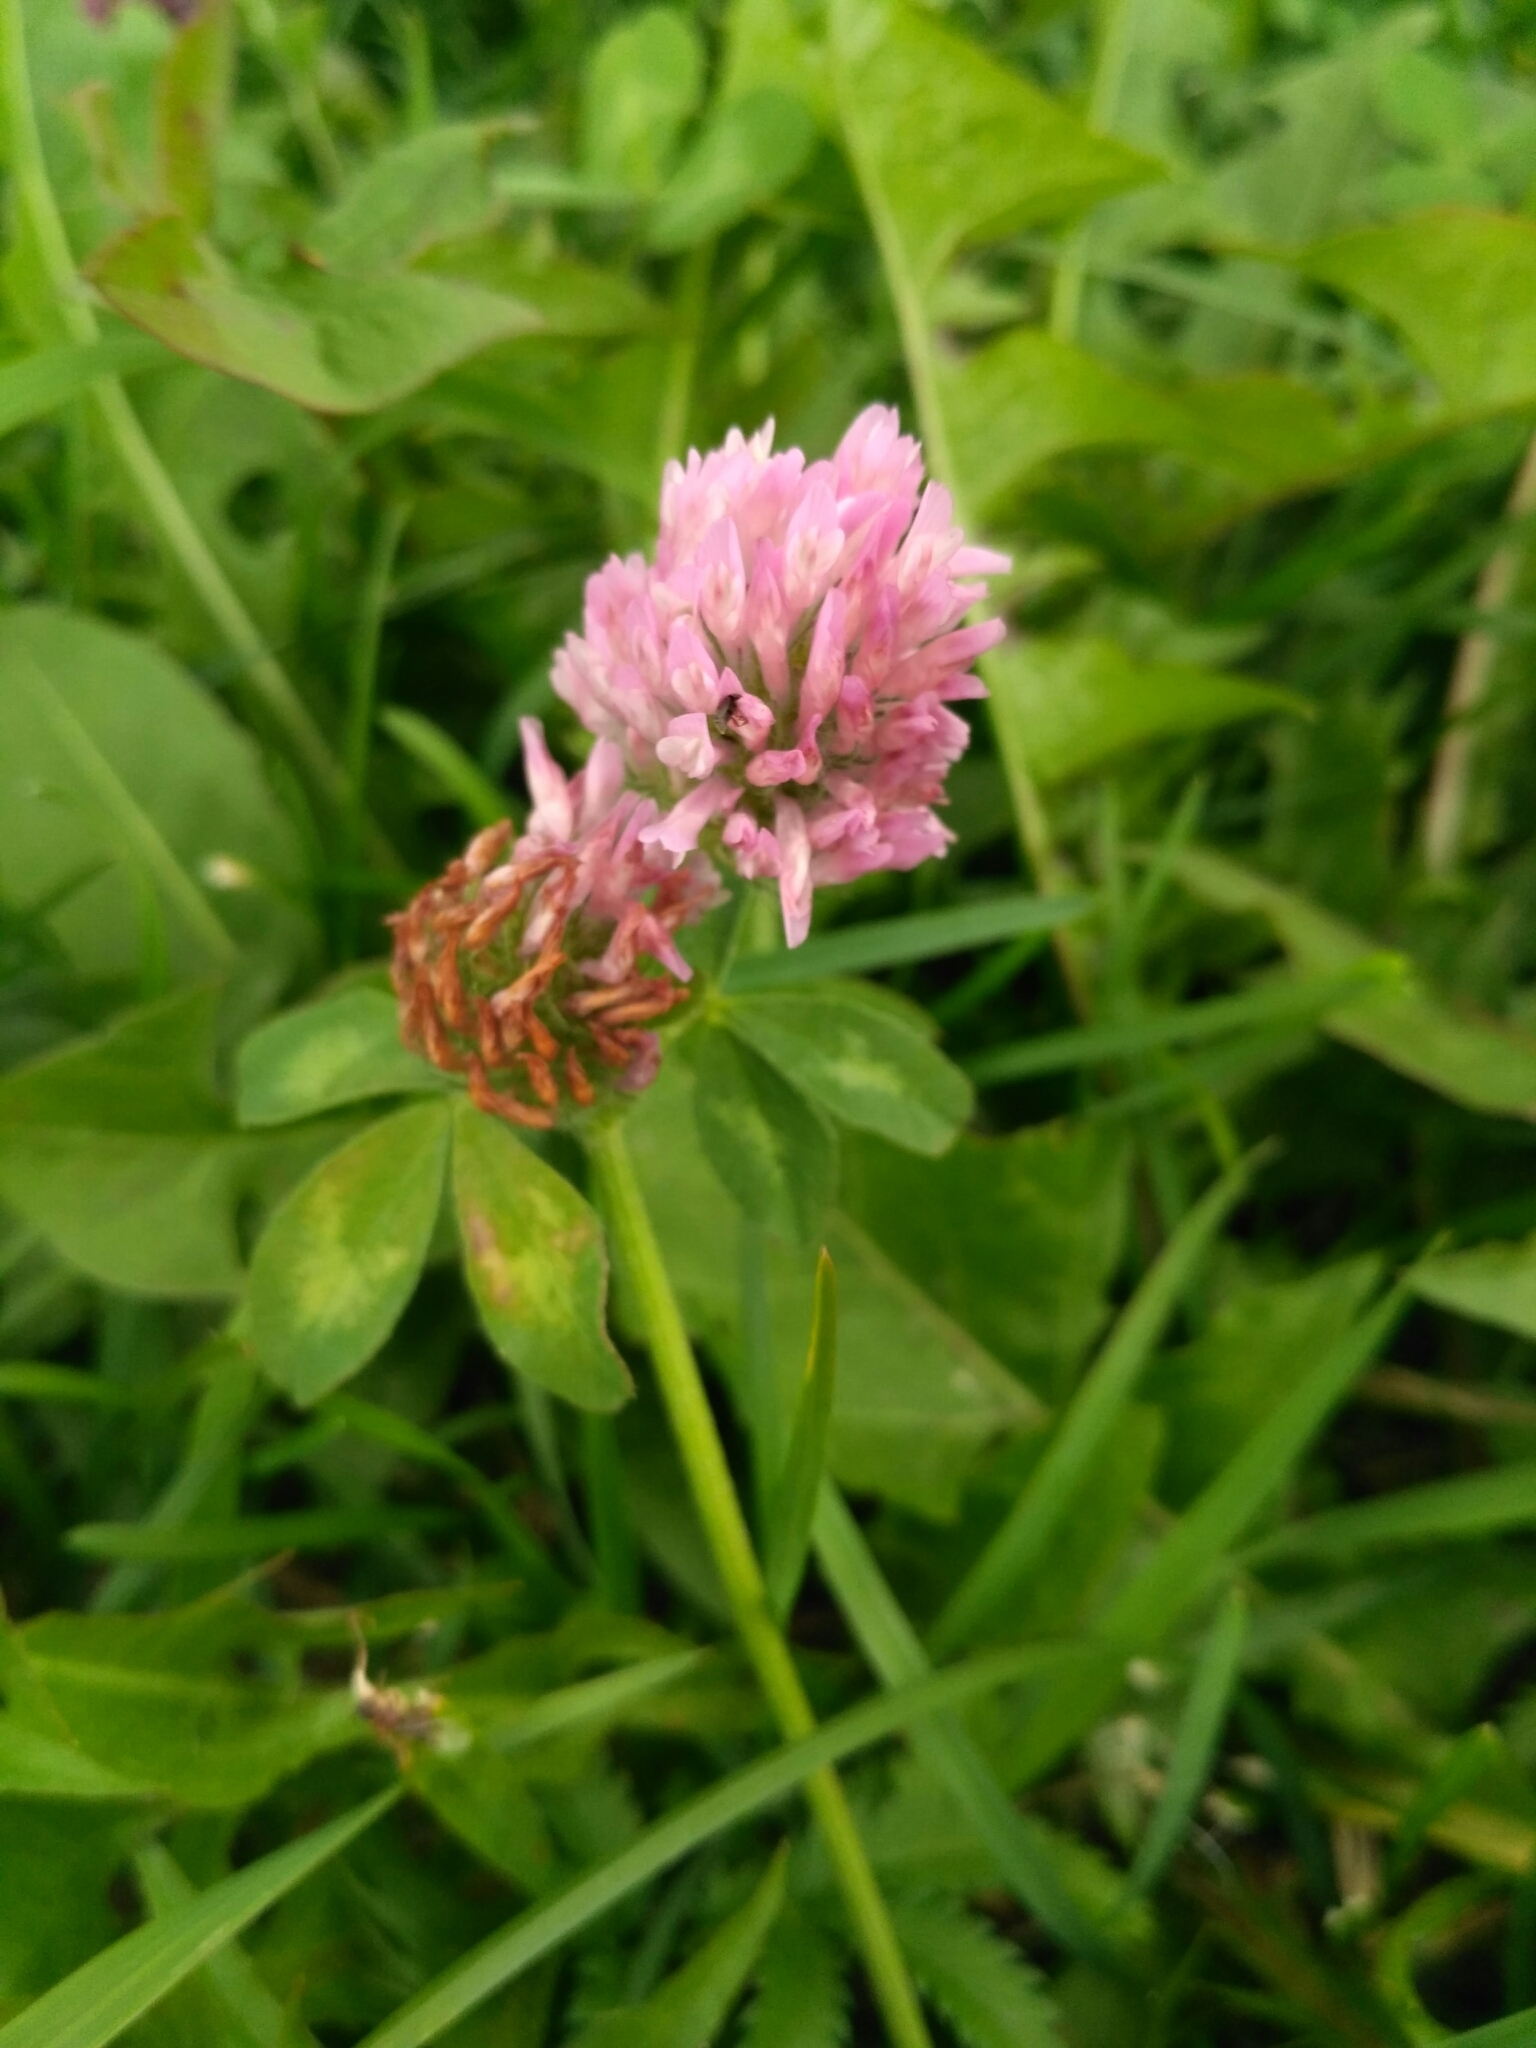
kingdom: Plantae
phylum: Tracheophyta
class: Magnoliopsida
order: Fabales
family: Fabaceae
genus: Trifolium
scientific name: Trifolium pratense
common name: Red clover
